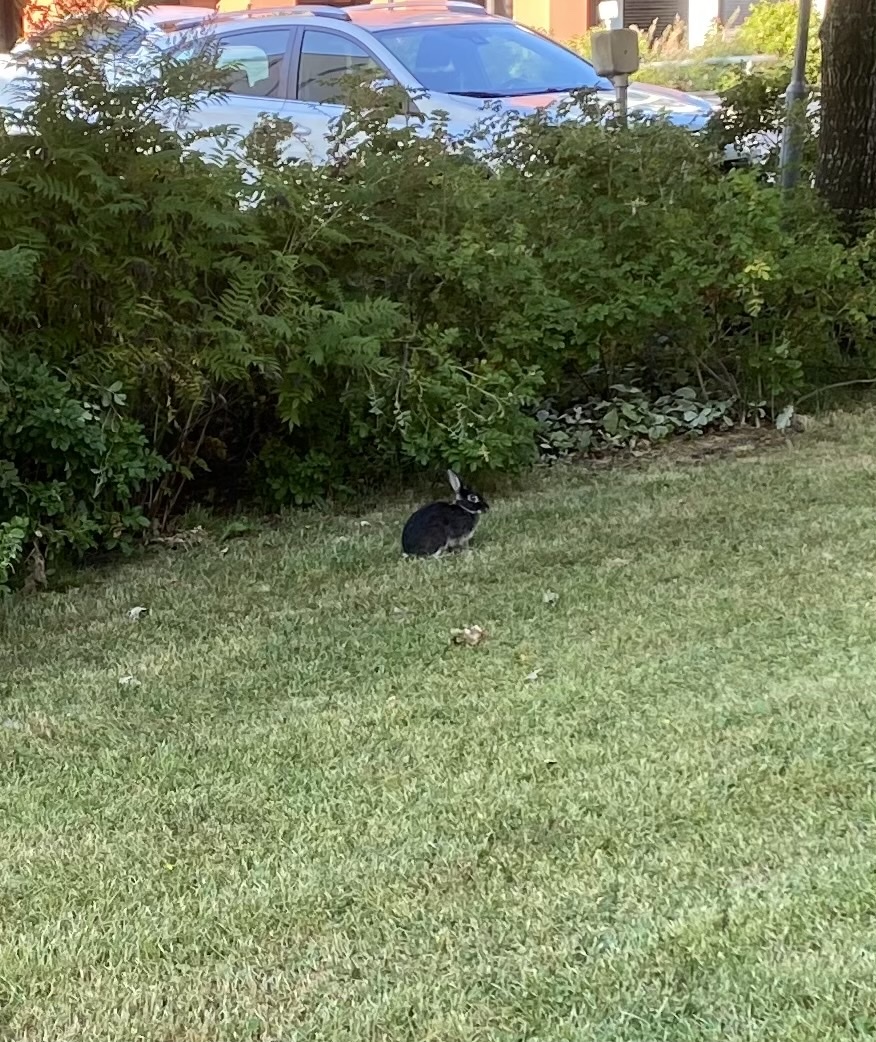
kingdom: Animalia
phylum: Chordata
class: Mammalia
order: Lagomorpha
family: Leporidae
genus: Oryctolagus
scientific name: Oryctolagus cuniculus
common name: European rabbit
